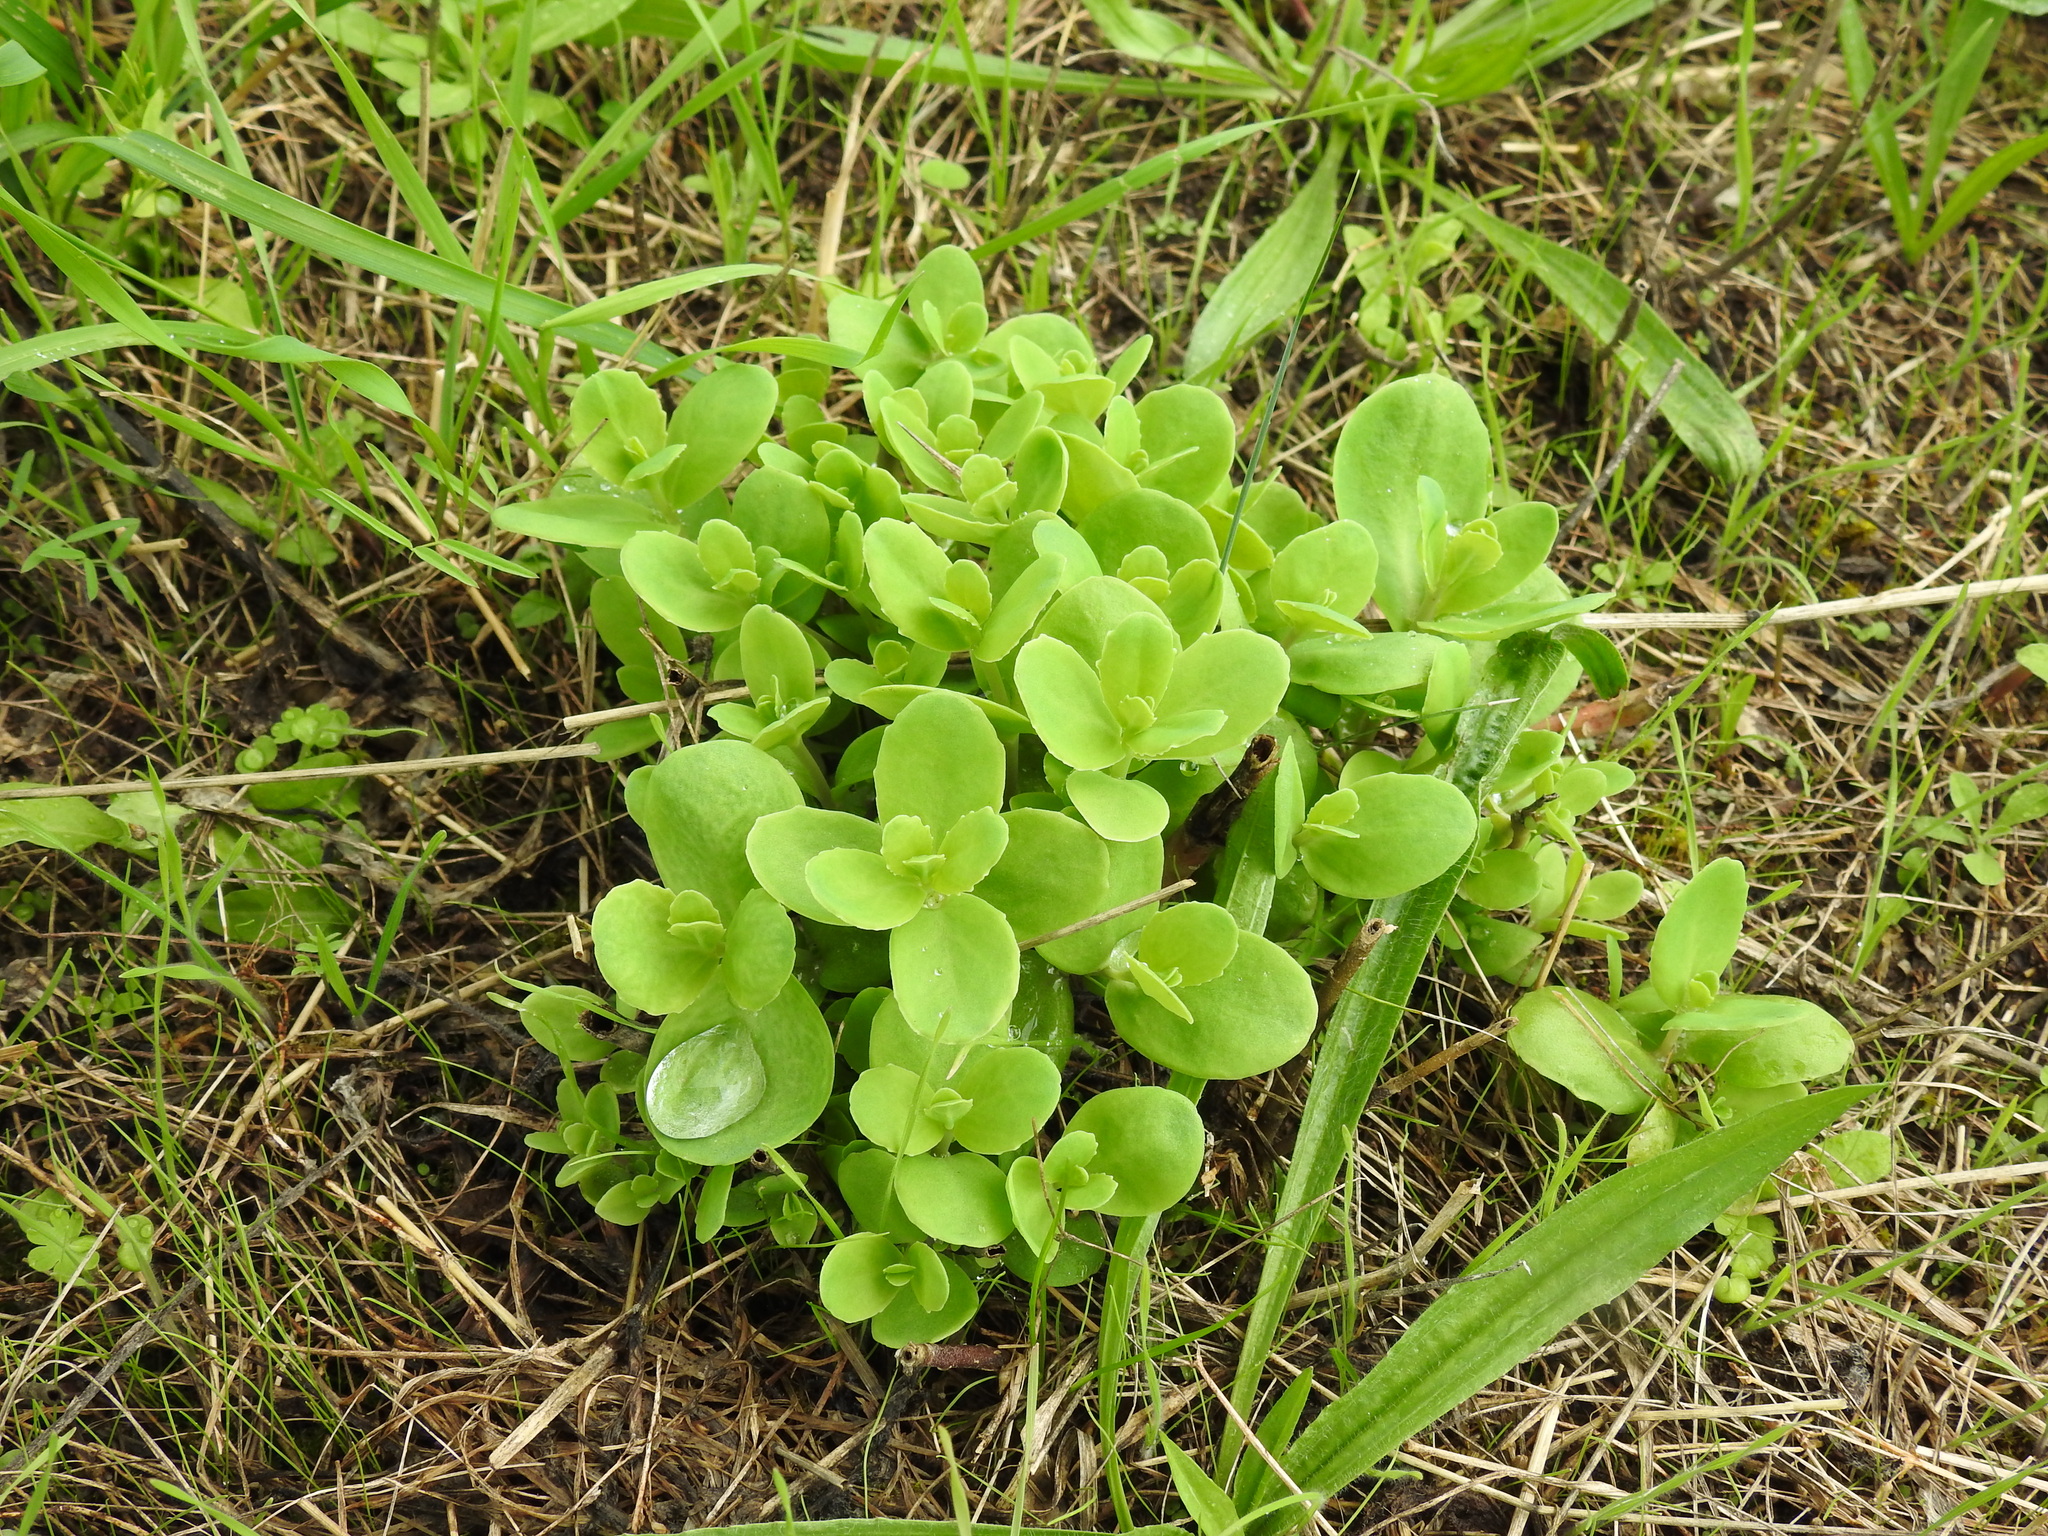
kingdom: Plantae
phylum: Tracheophyta
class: Magnoliopsida
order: Saxifragales
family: Crassulaceae
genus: Hylotelephium
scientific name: Hylotelephium maximum
